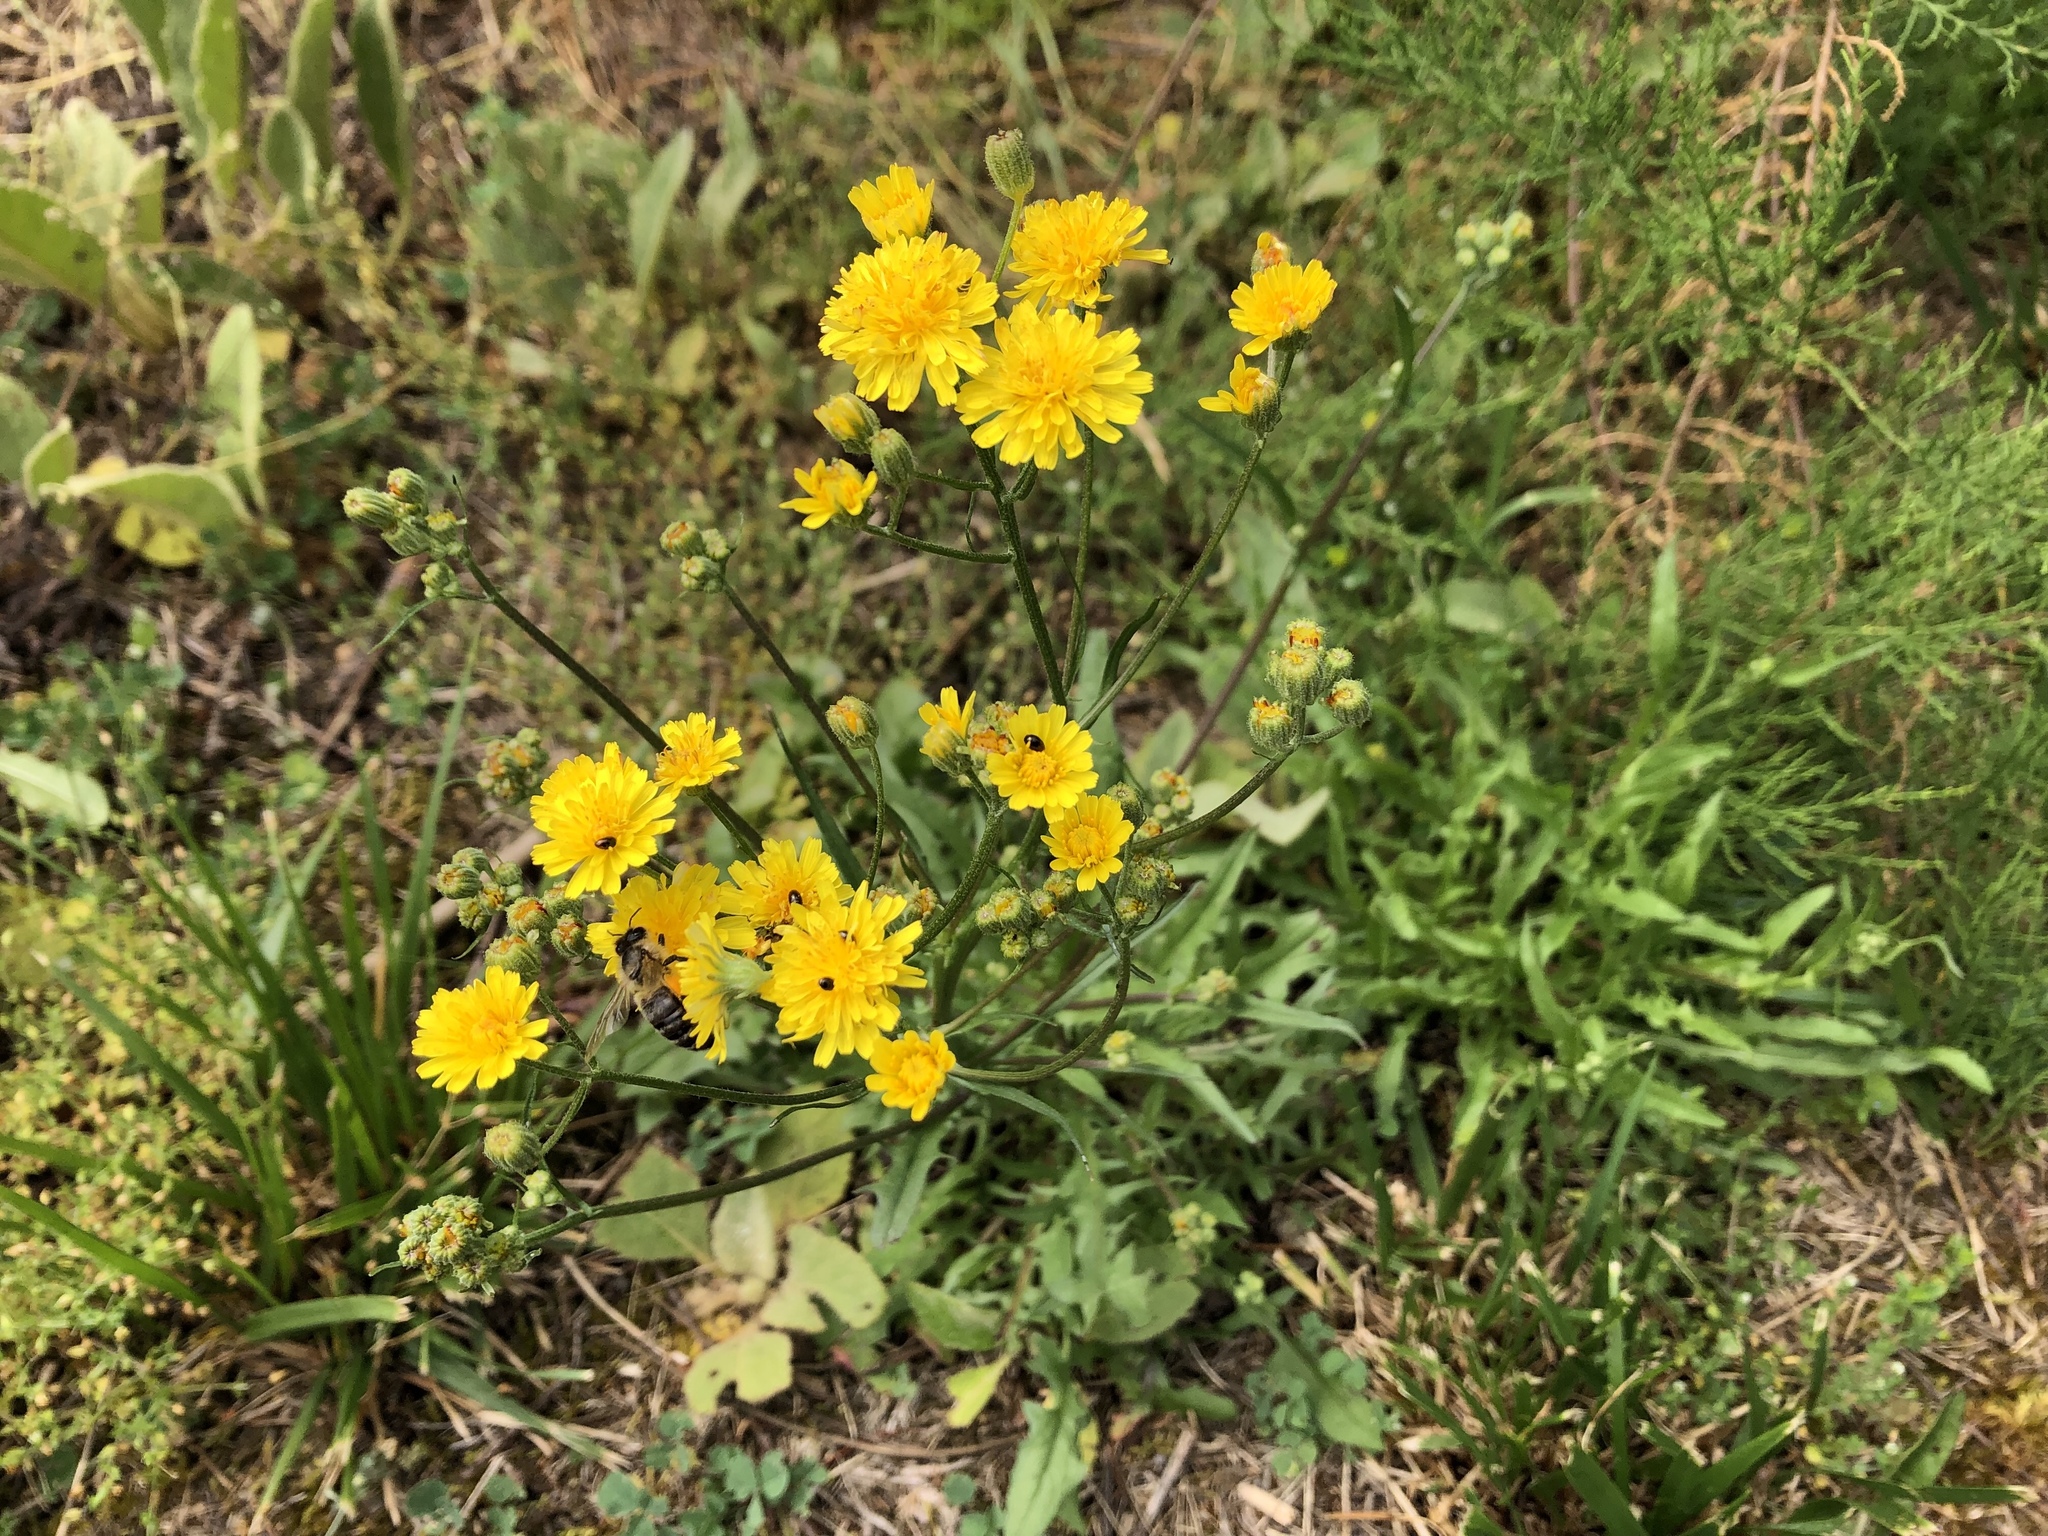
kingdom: Plantae
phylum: Tracheophyta
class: Magnoliopsida
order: Asterales
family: Asteraceae
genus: Crepis
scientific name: Crepis capillaris
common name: Smooth hawksbeard
